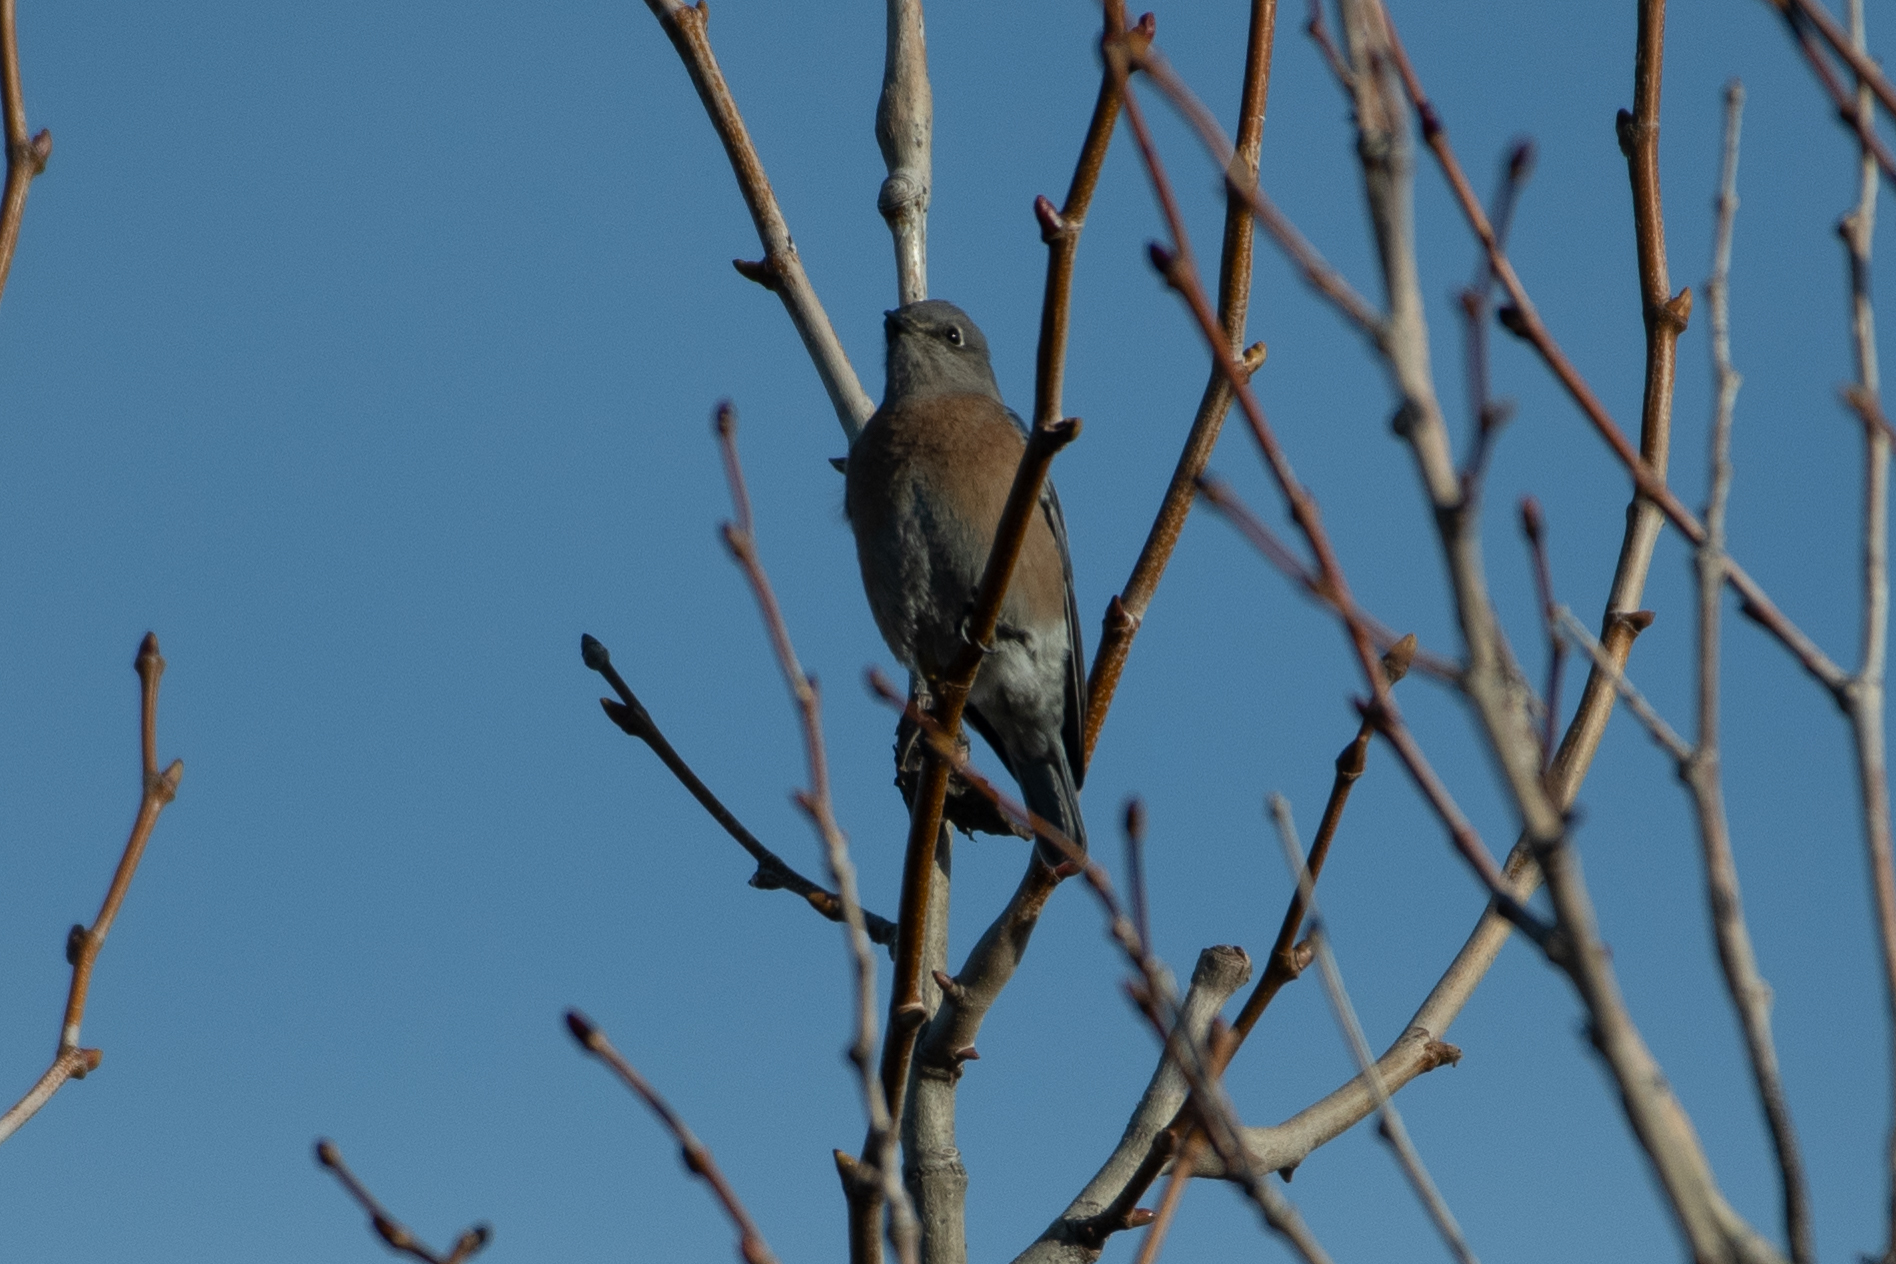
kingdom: Animalia
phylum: Chordata
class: Aves
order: Passeriformes
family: Turdidae
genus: Sialia
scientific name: Sialia mexicana
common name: Western bluebird
